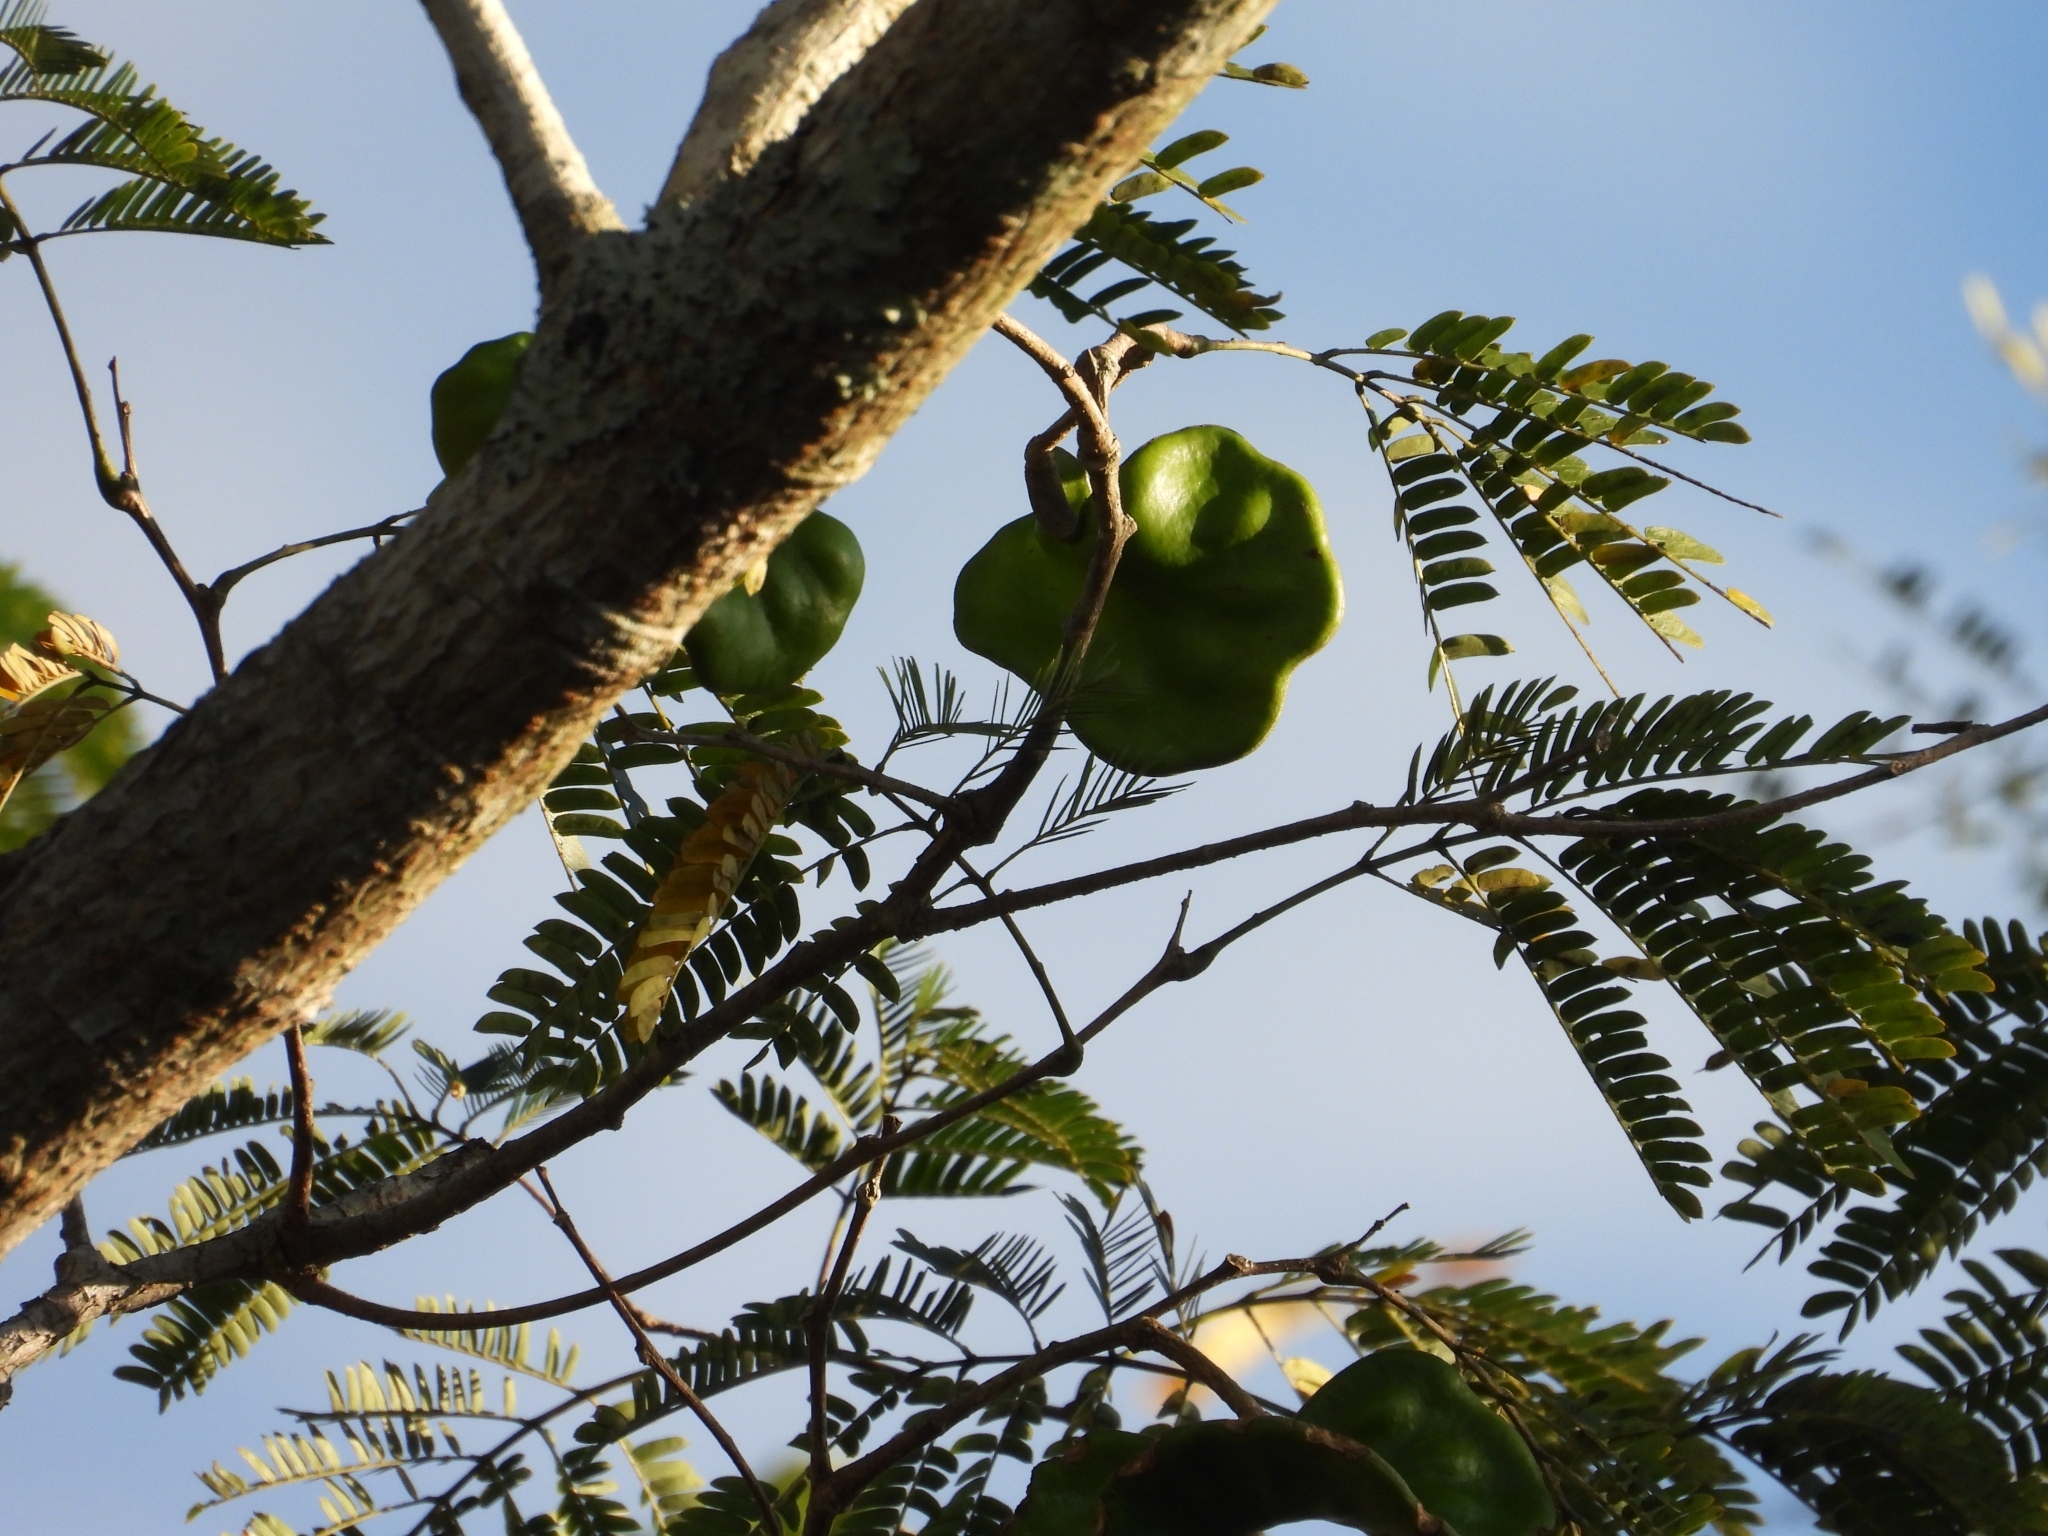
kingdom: Plantae
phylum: Tracheophyta
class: Magnoliopsida
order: Fabales
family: Fabaceae
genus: Enterolobium
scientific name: Enterolobium cyclocarpum
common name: Ear tree
